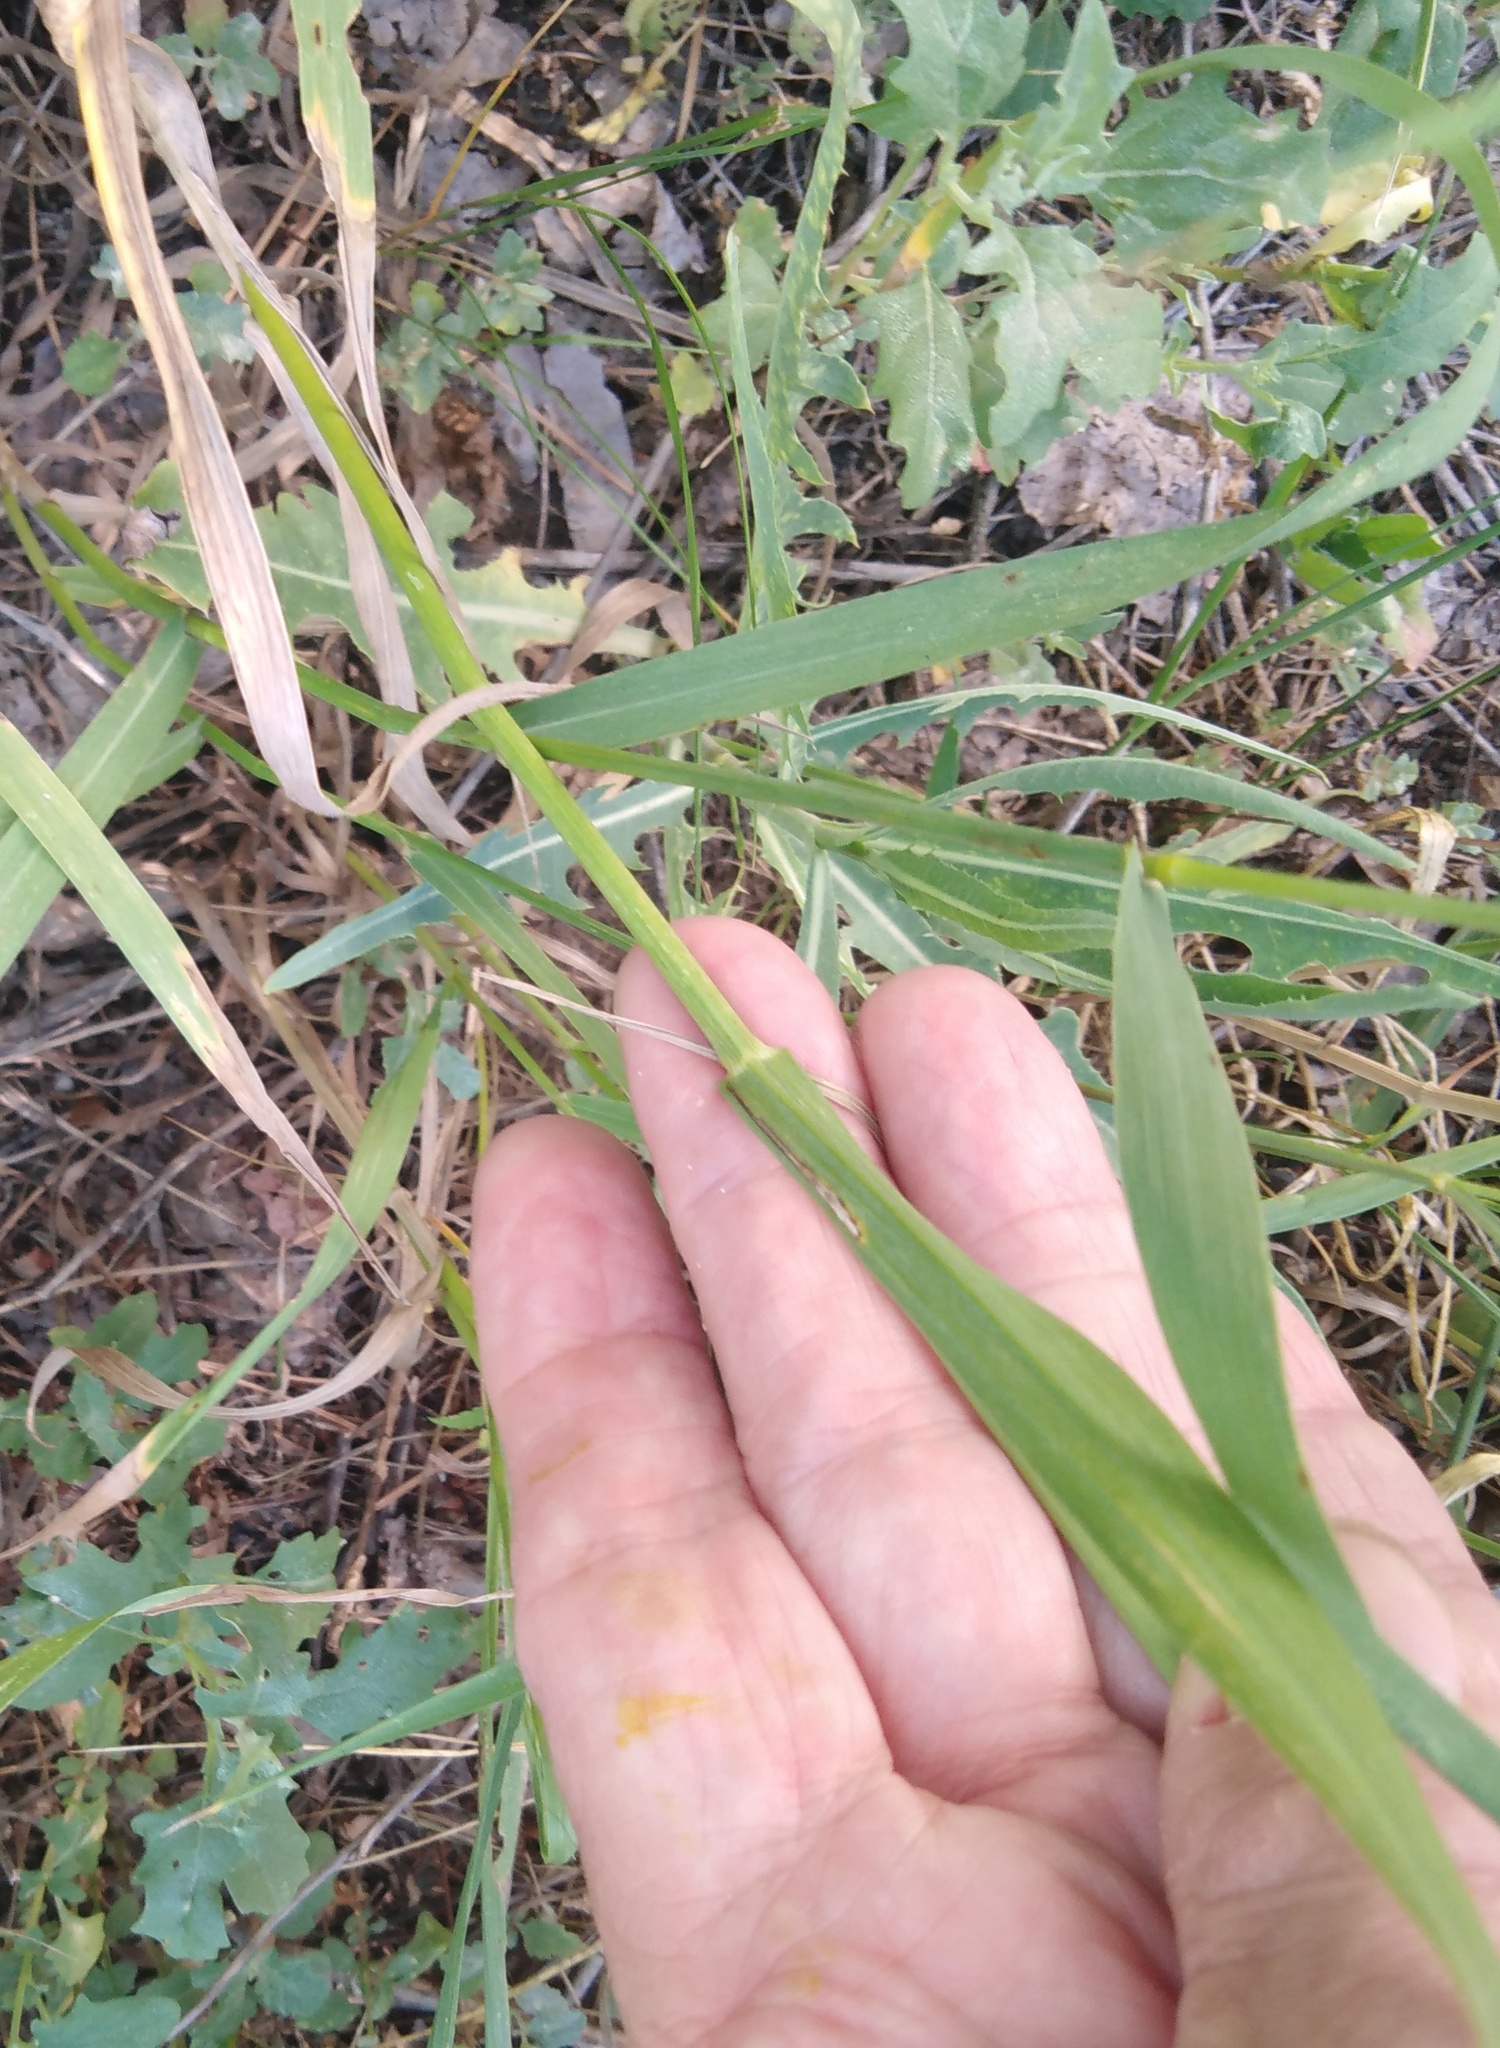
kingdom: Plantae
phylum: Tracheophyta
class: Liliopsida
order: Poales
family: Poaceae
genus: Bromus
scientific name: Bromus inermis
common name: Smooth brome
